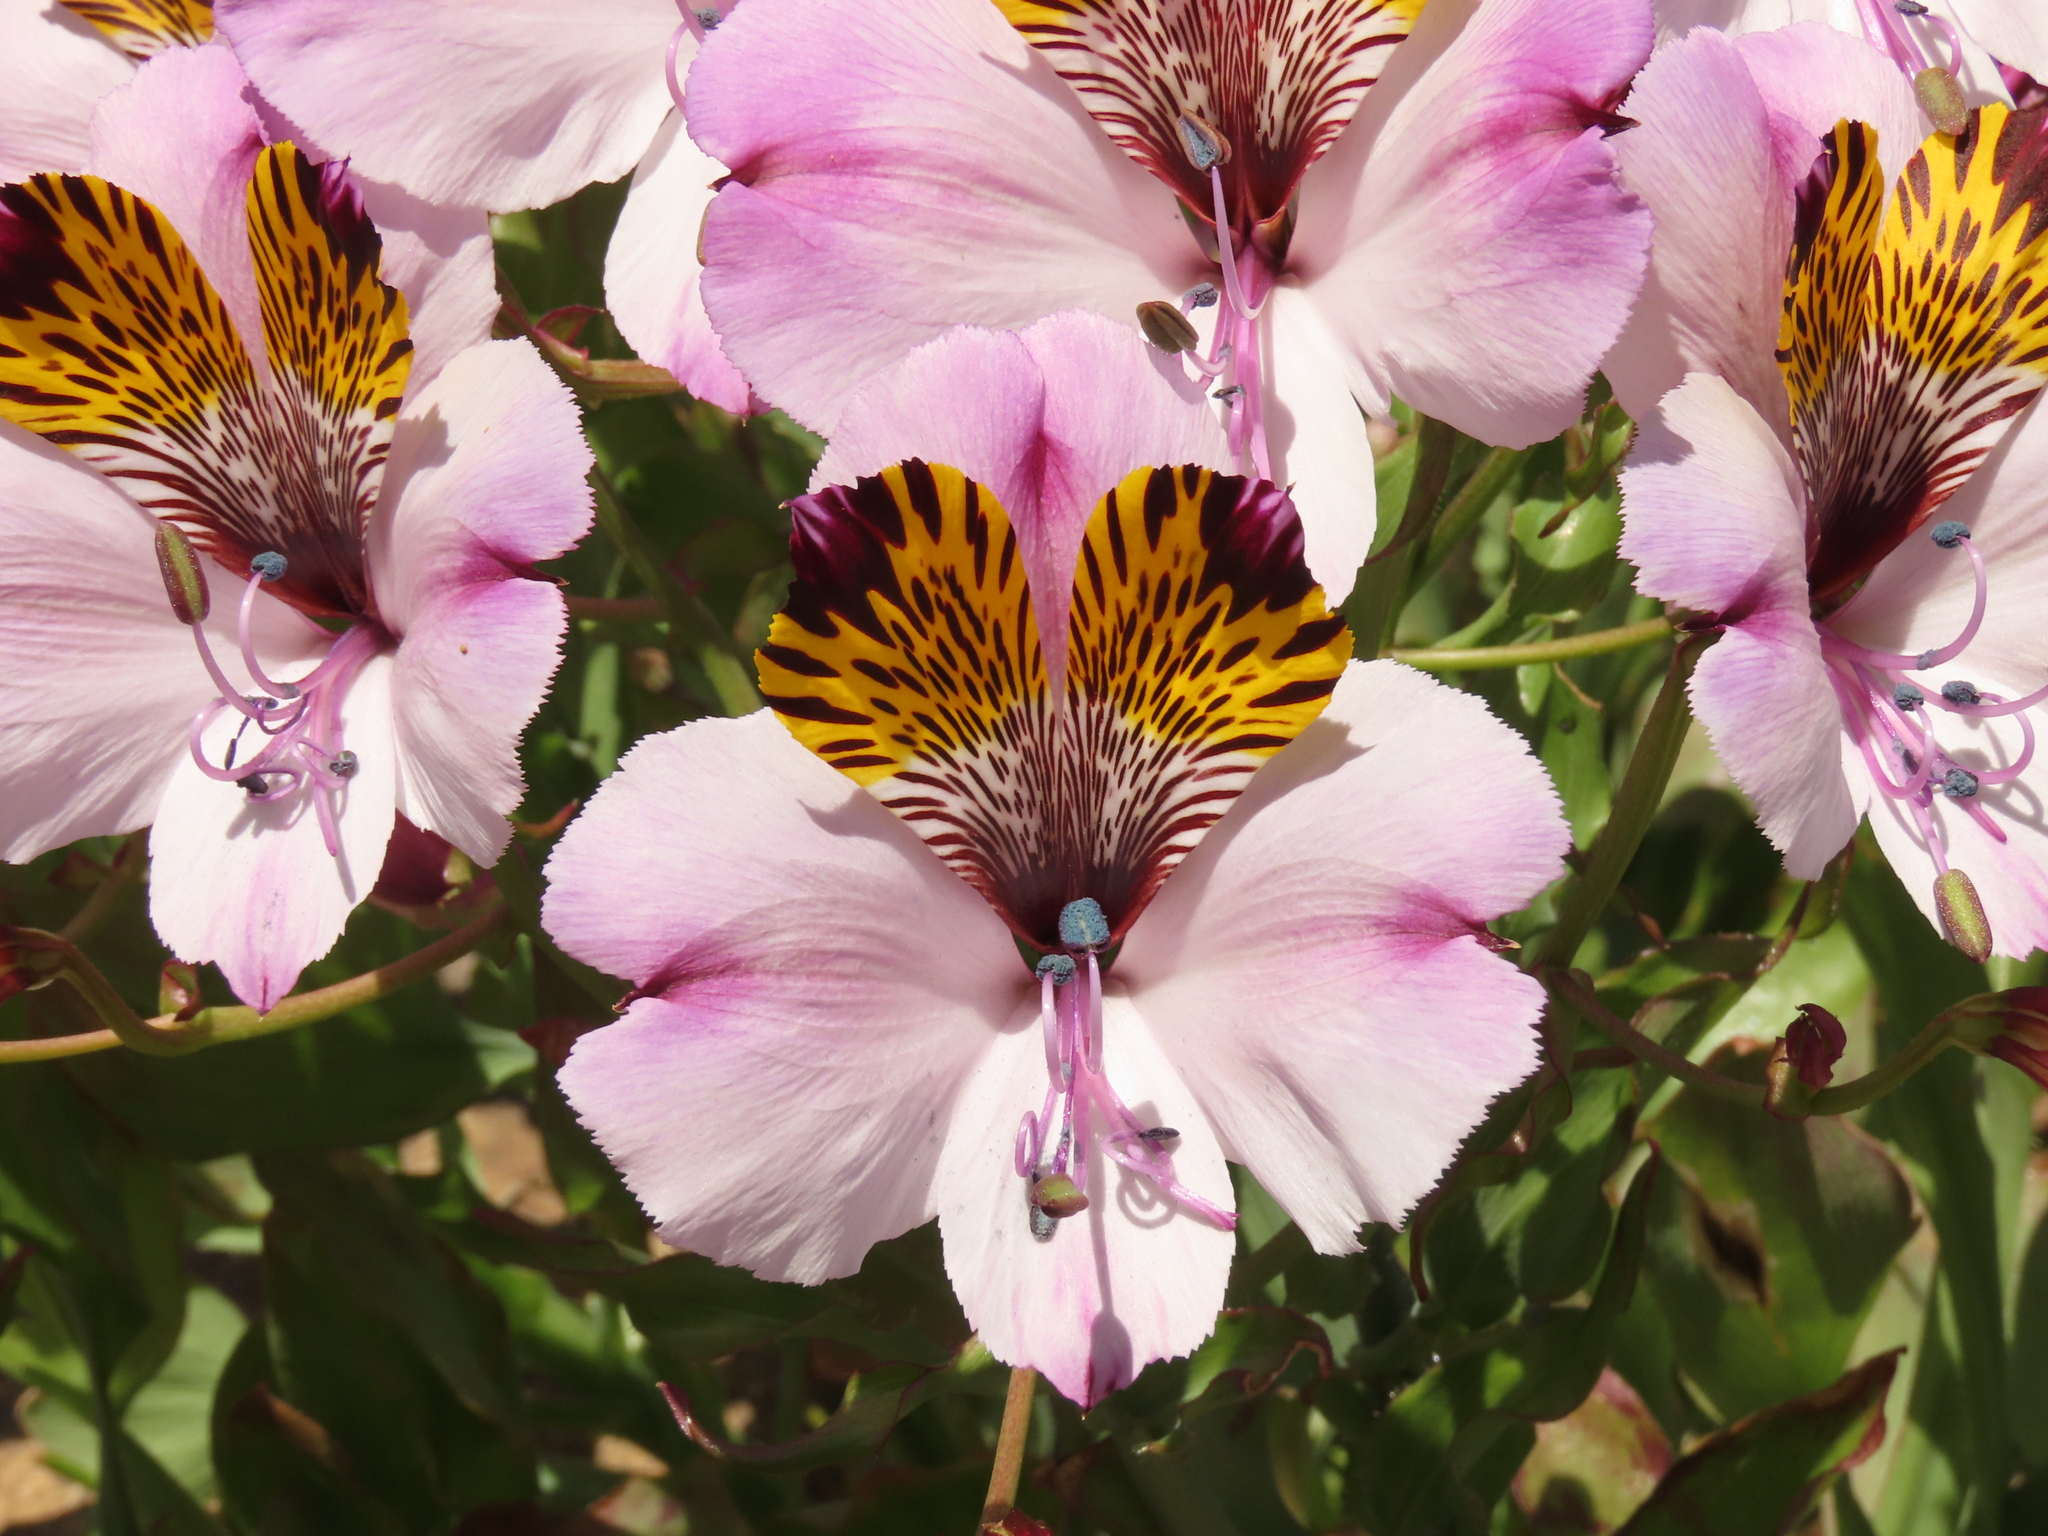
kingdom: Plantae
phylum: Tracheophyta
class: Liliopsida
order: Liliales
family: Alstroemeriaceae
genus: Alstroemeria
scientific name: Alstroemeria magnifica
